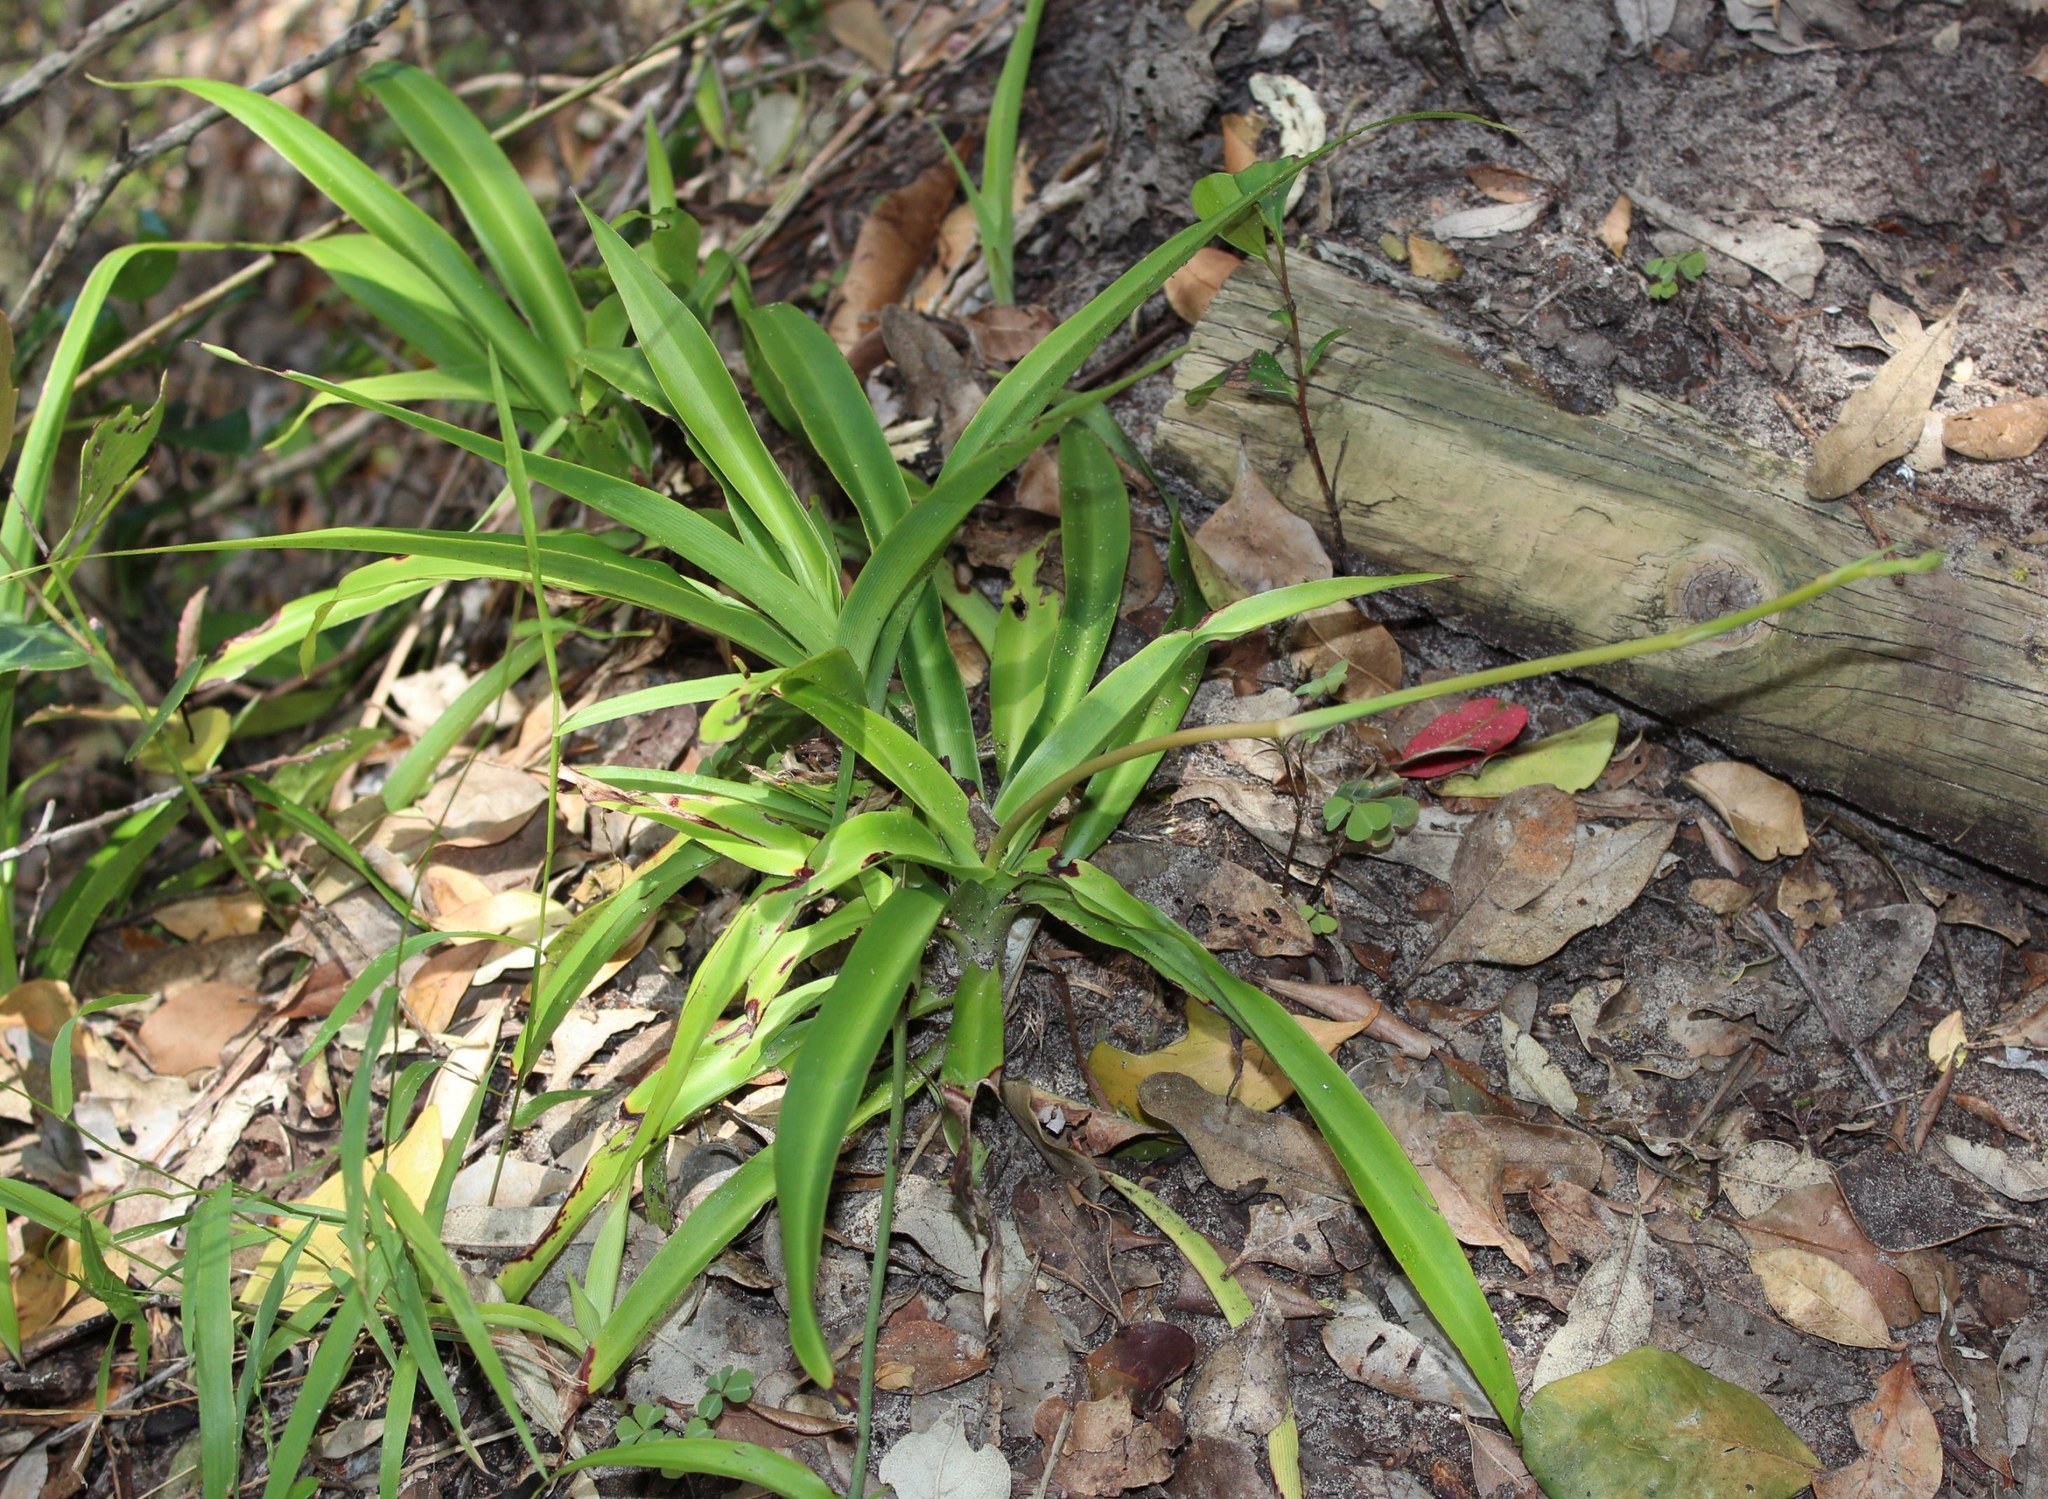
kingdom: Plantae
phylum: Tracheophyta
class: Liliopsida
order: Asparagales
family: Asparagaceae
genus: Chlorophytum
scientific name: Chlorophytum comosum
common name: Spider plant
